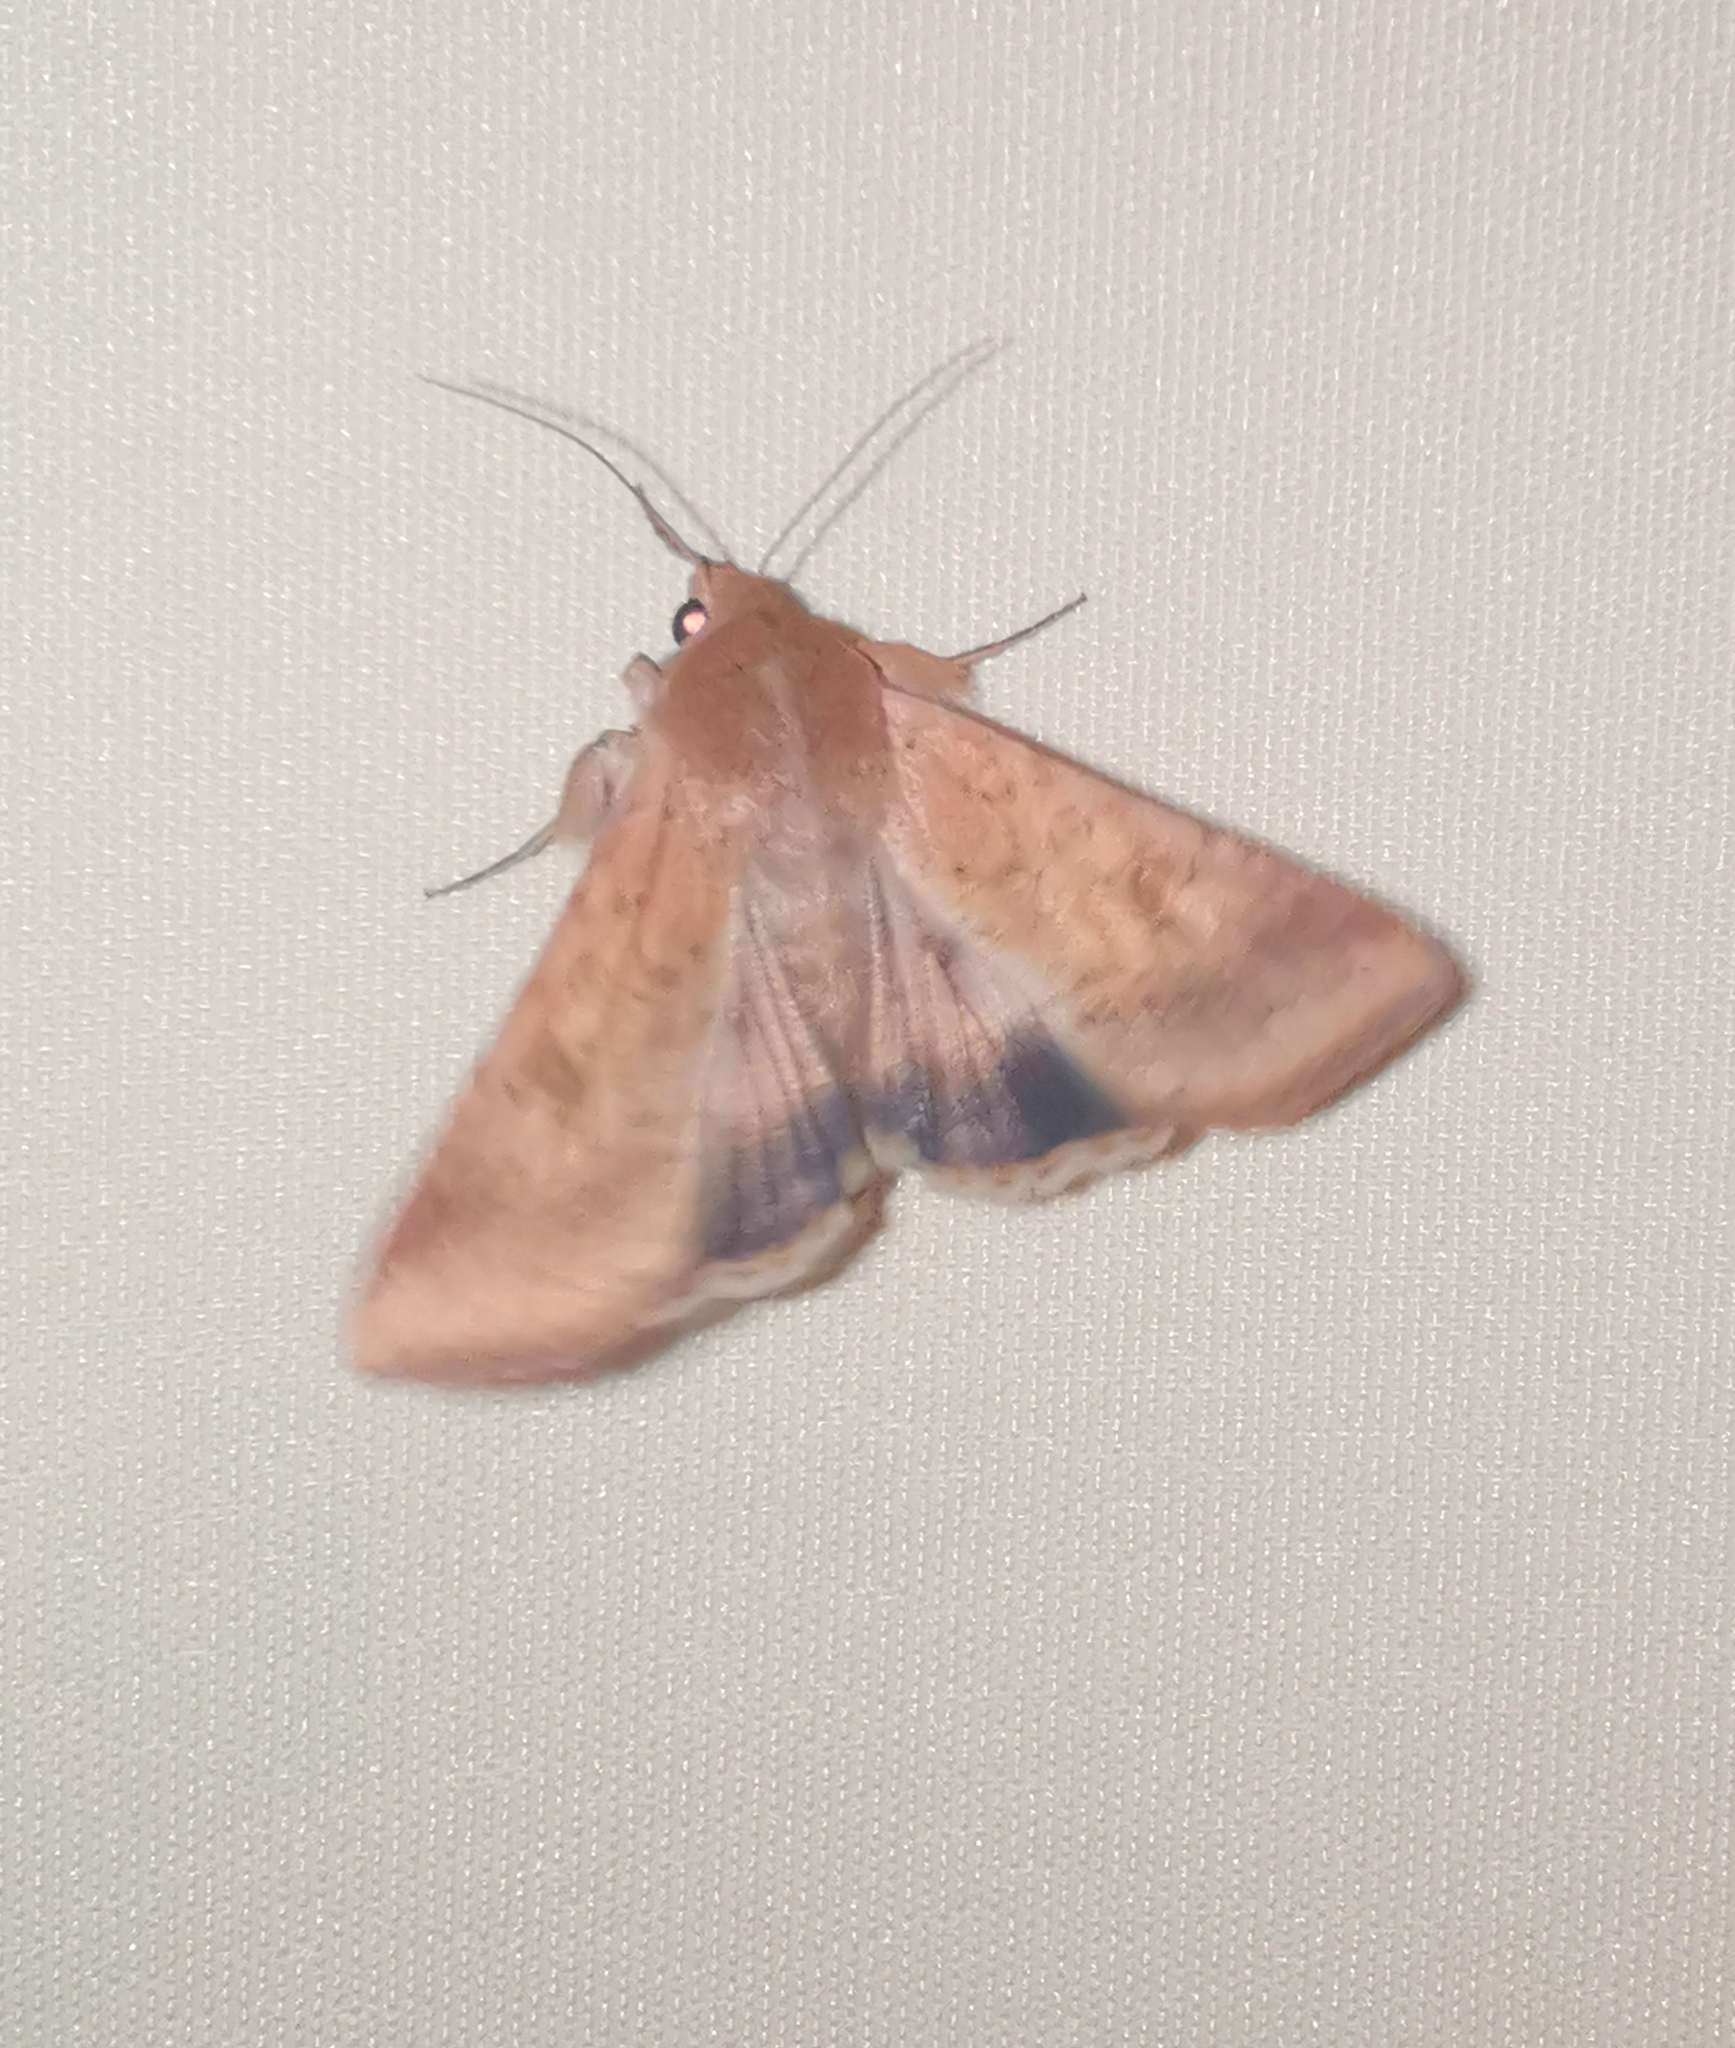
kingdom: Animalia
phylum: Arthropoda
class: Insecta
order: Lepidoptera
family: Noctuidae
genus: Helicoverpa
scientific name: Helicoverpa armigera
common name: Cotton bollworm
